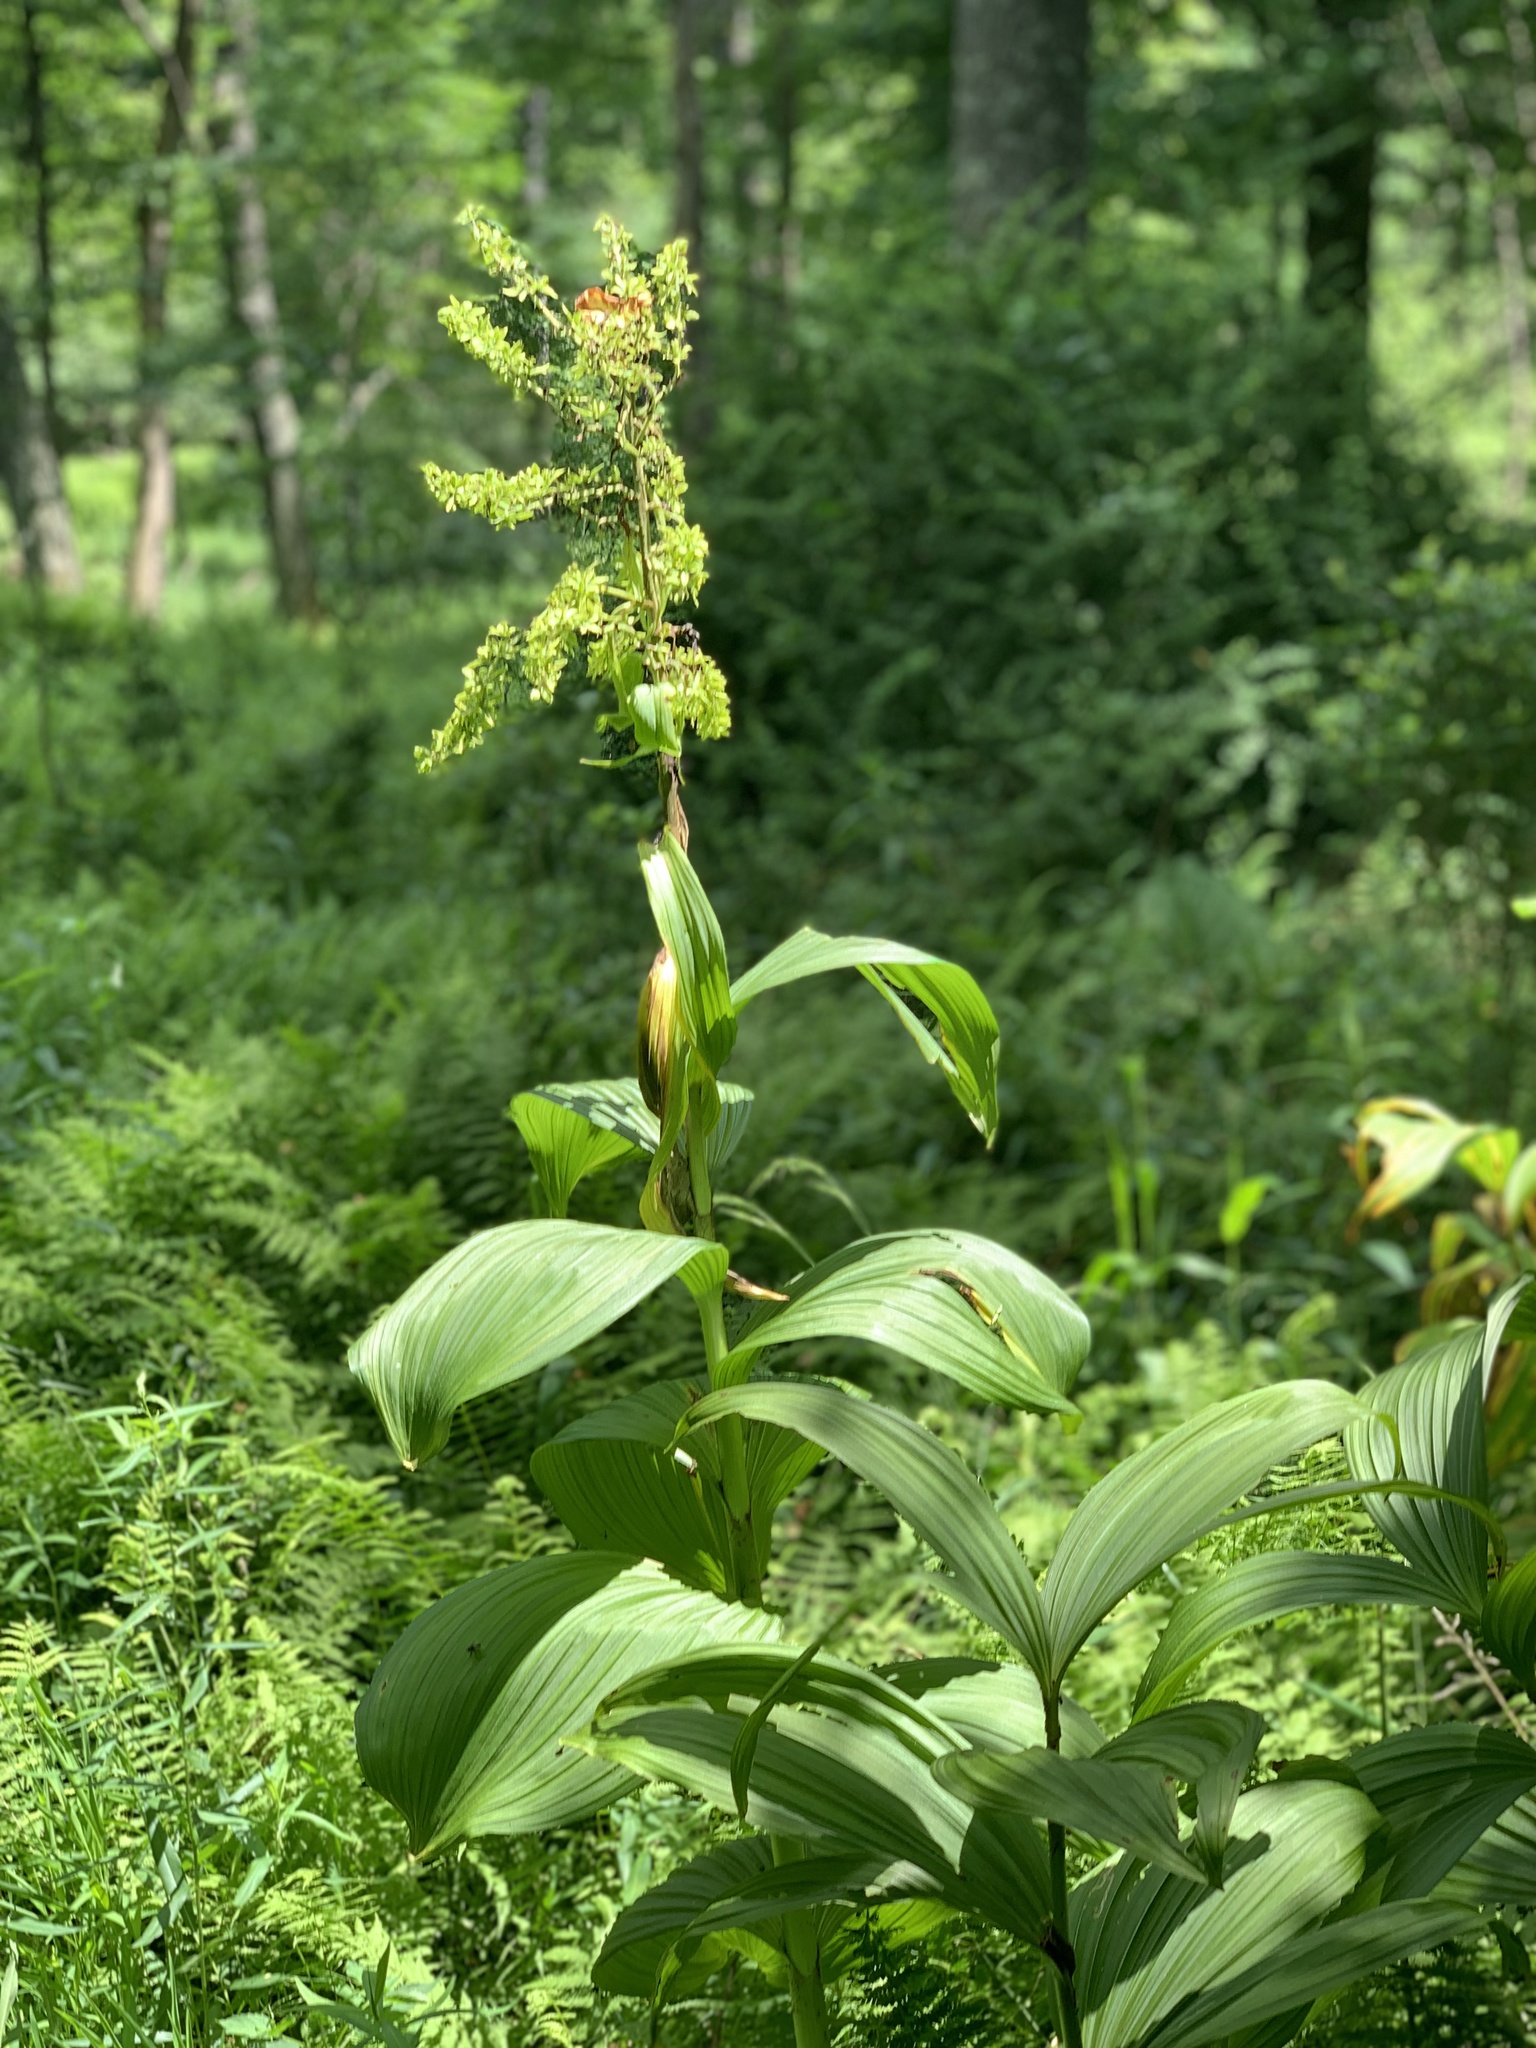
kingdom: Plantae
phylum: Tracheophyta
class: Liliopsida
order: Liliales
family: Melanthiaceae
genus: Veratrum
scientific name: Veratrum viride
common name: American false hellebore
